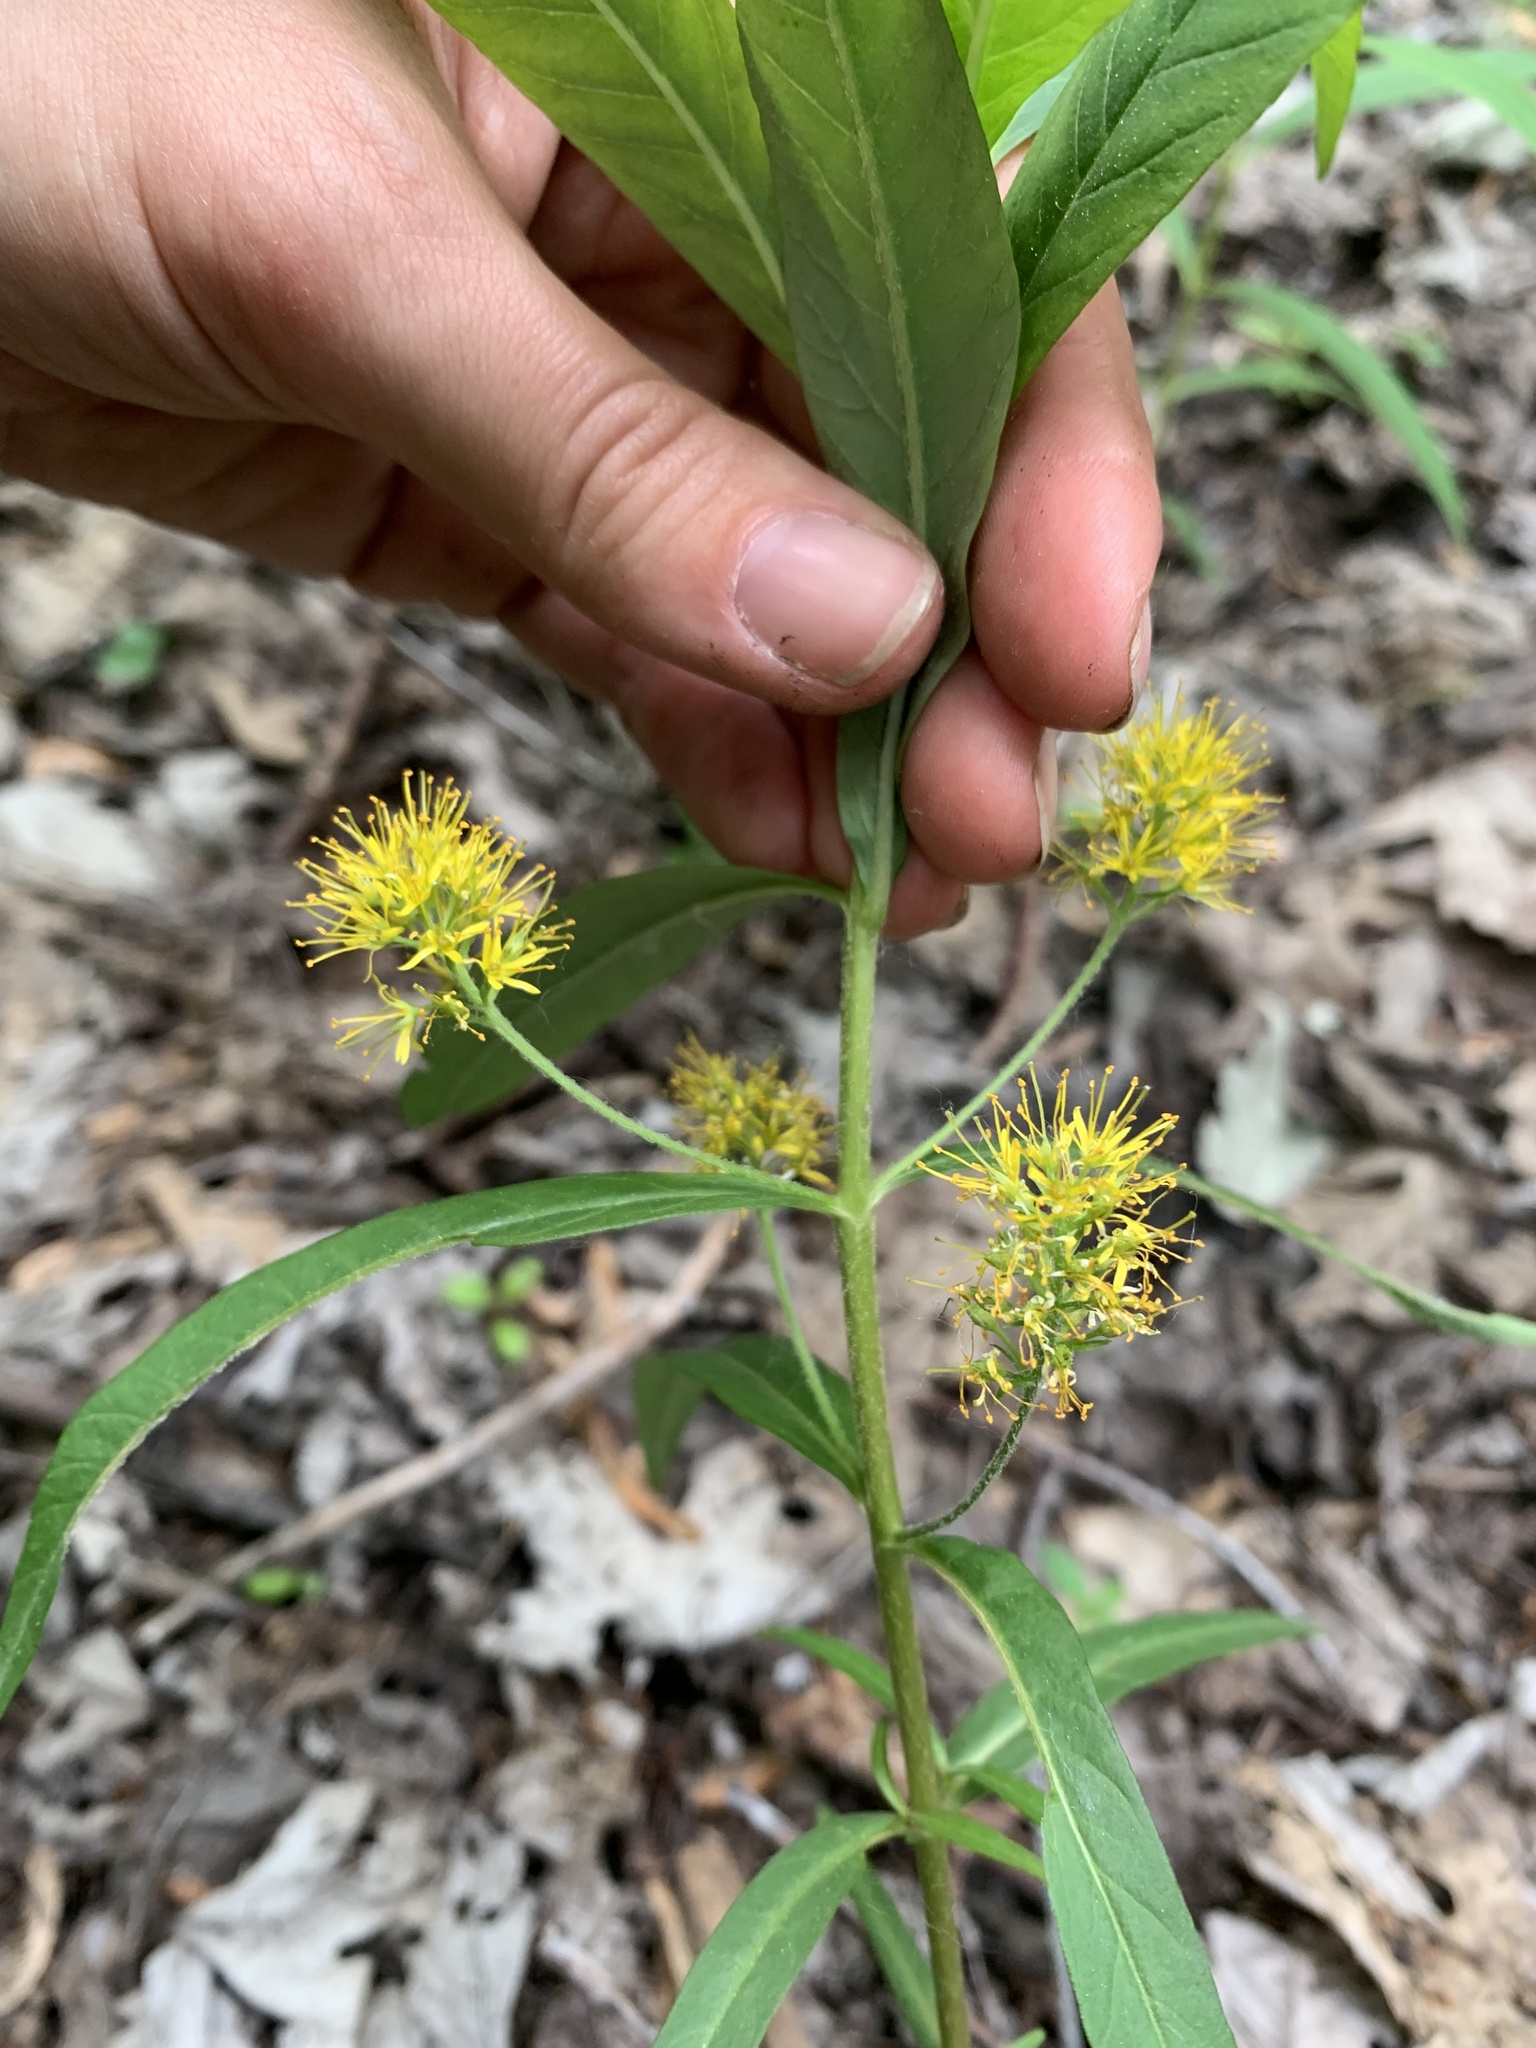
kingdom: Plantae
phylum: Tracheophyta
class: Magnoliopsida
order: Ericales
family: Primulaceae
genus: Lysimachia
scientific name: Lysimachia thyrsiflora
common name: Tufted loosestrife
